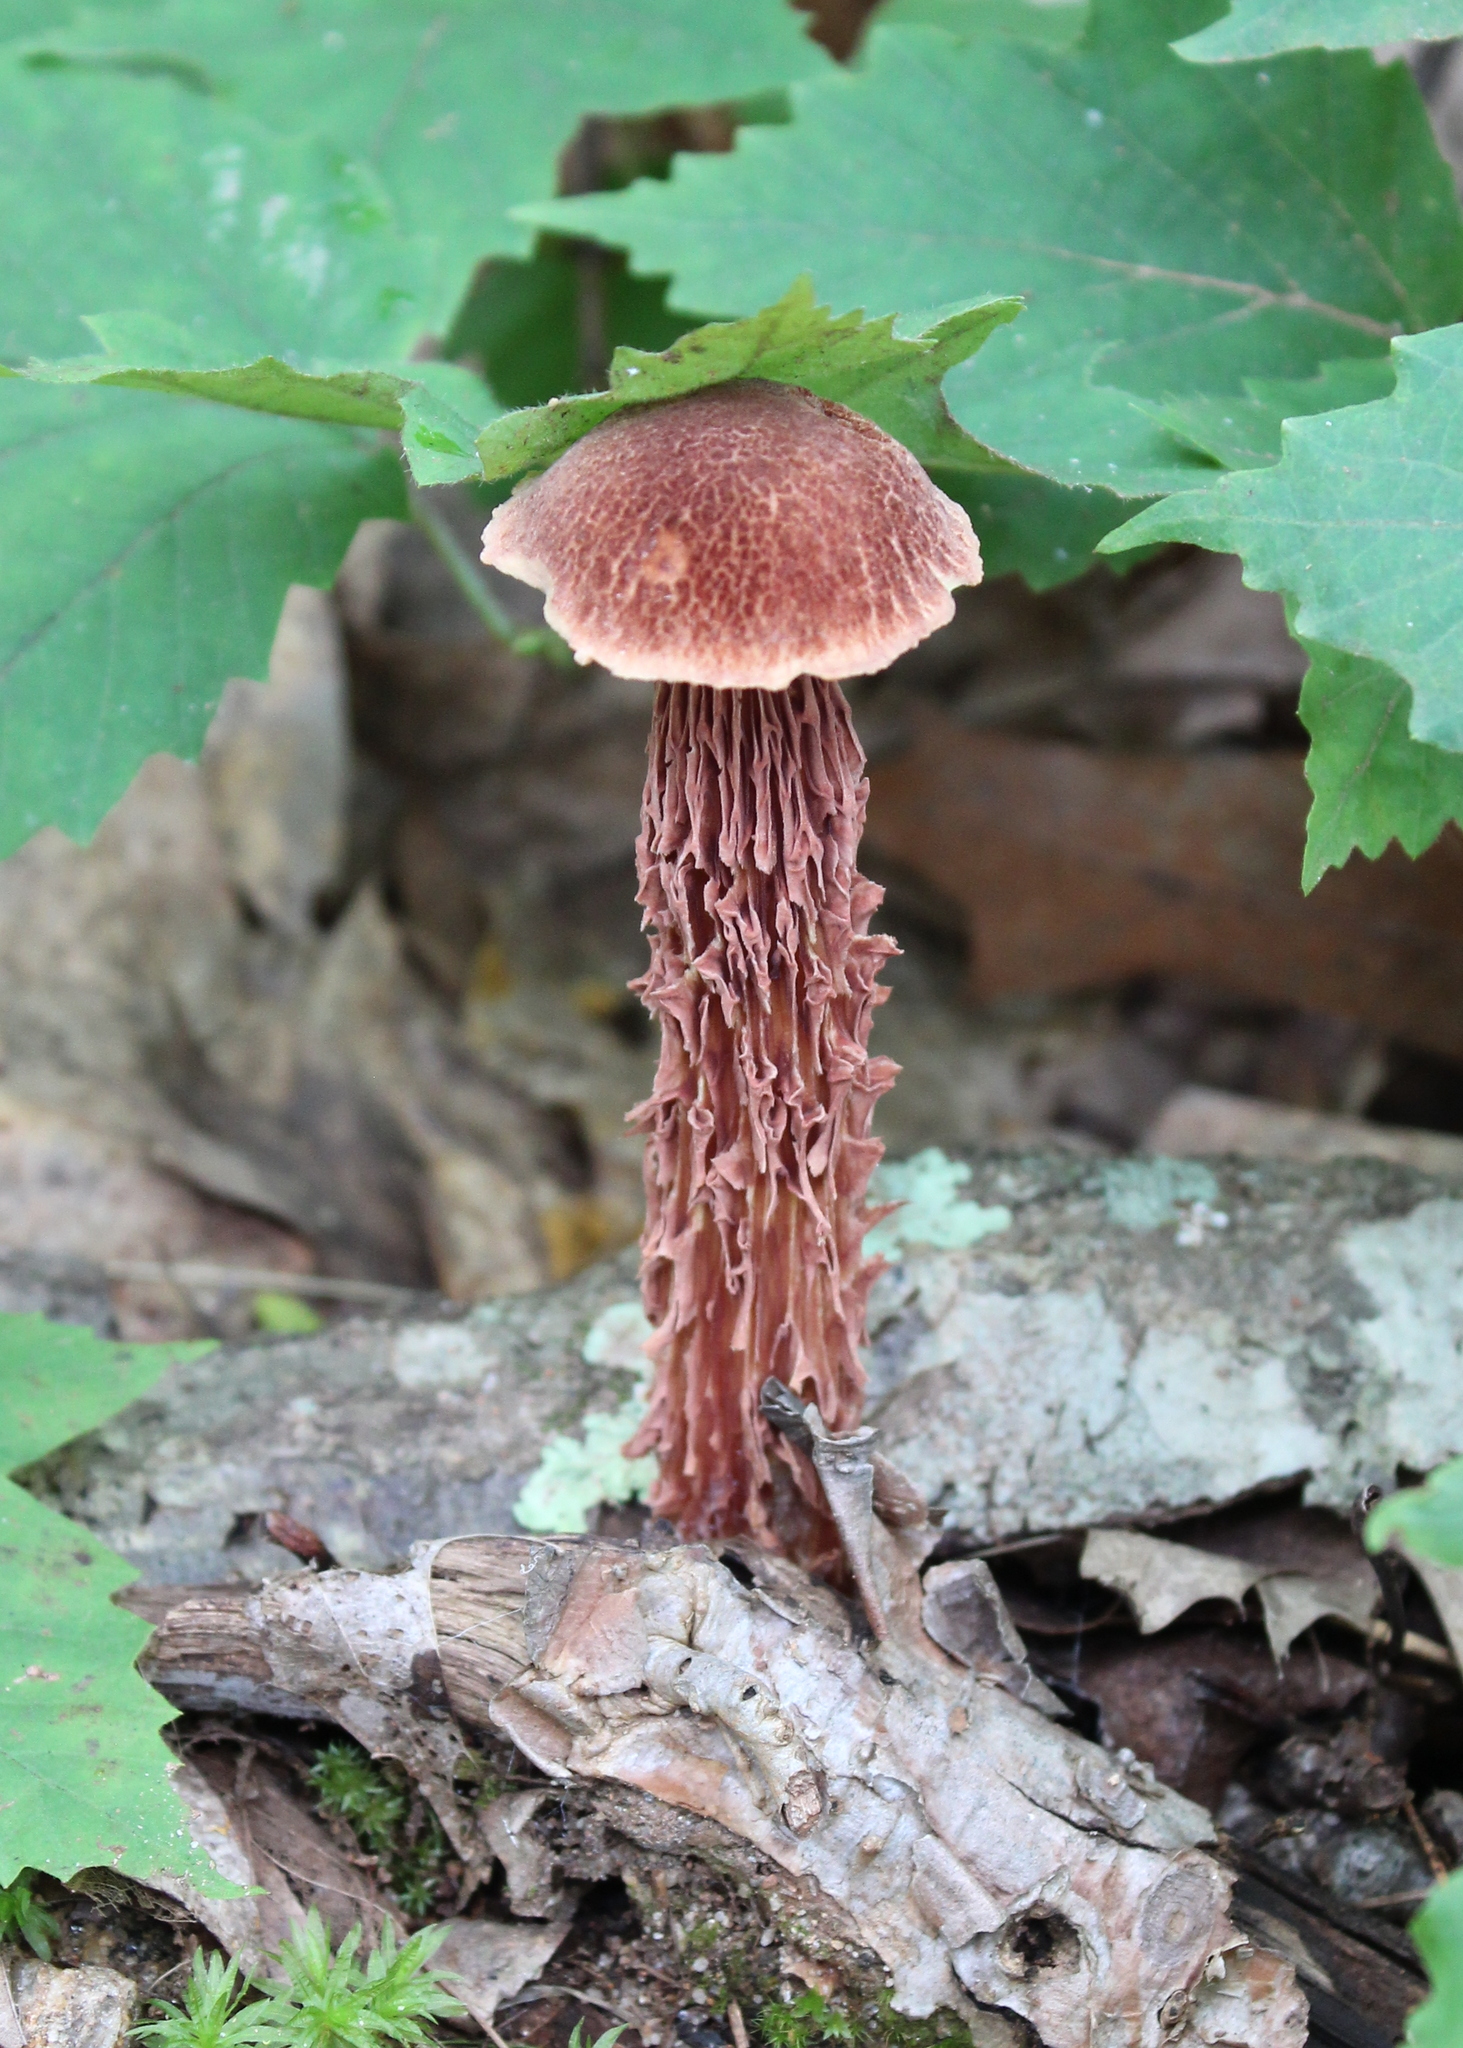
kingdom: Fungi
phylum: Basidiomycota
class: Agaricomycetes
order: Boletales
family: Boletaceae
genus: Aureoboletus
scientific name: Aureoboletus russellii
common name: Russell's bolete
